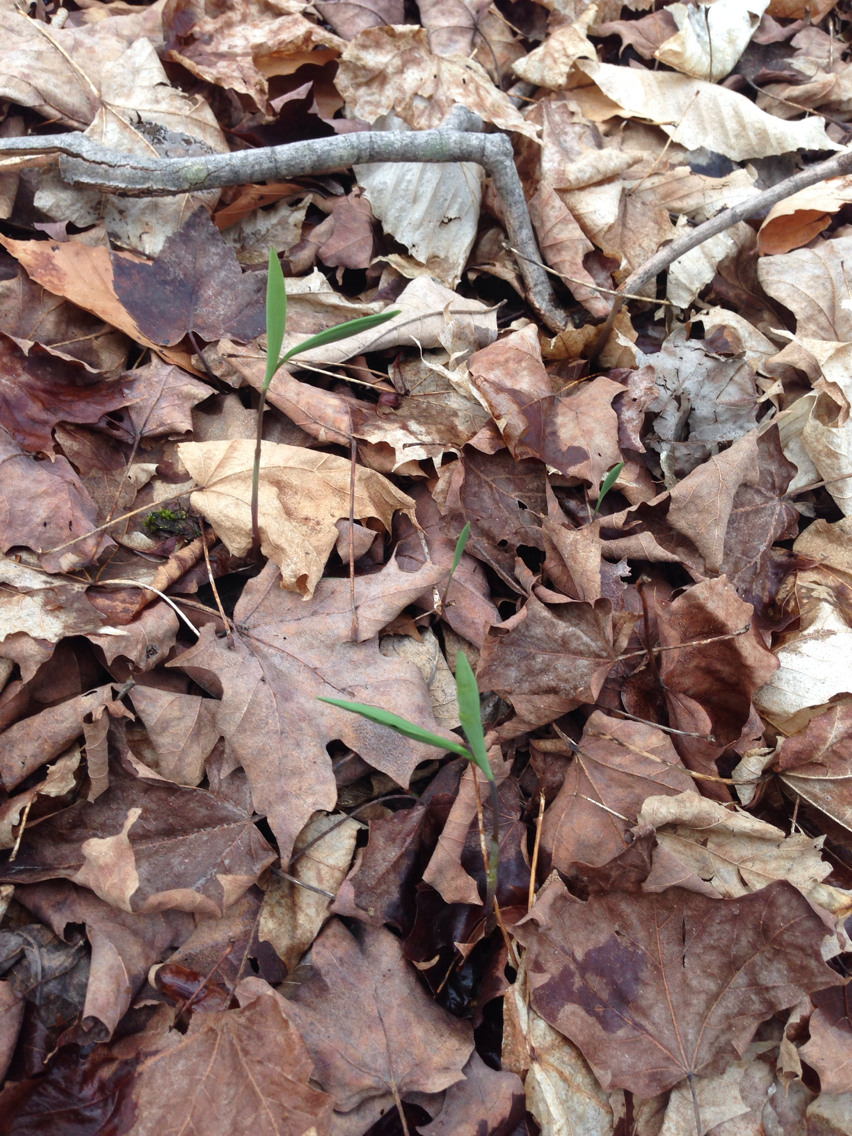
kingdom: Plantae
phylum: Tracheophyta
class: Liliopsida
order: Liliales
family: Colchicaceae
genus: Uvularia
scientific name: Uvularia sessilifolia
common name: Straw-lily
